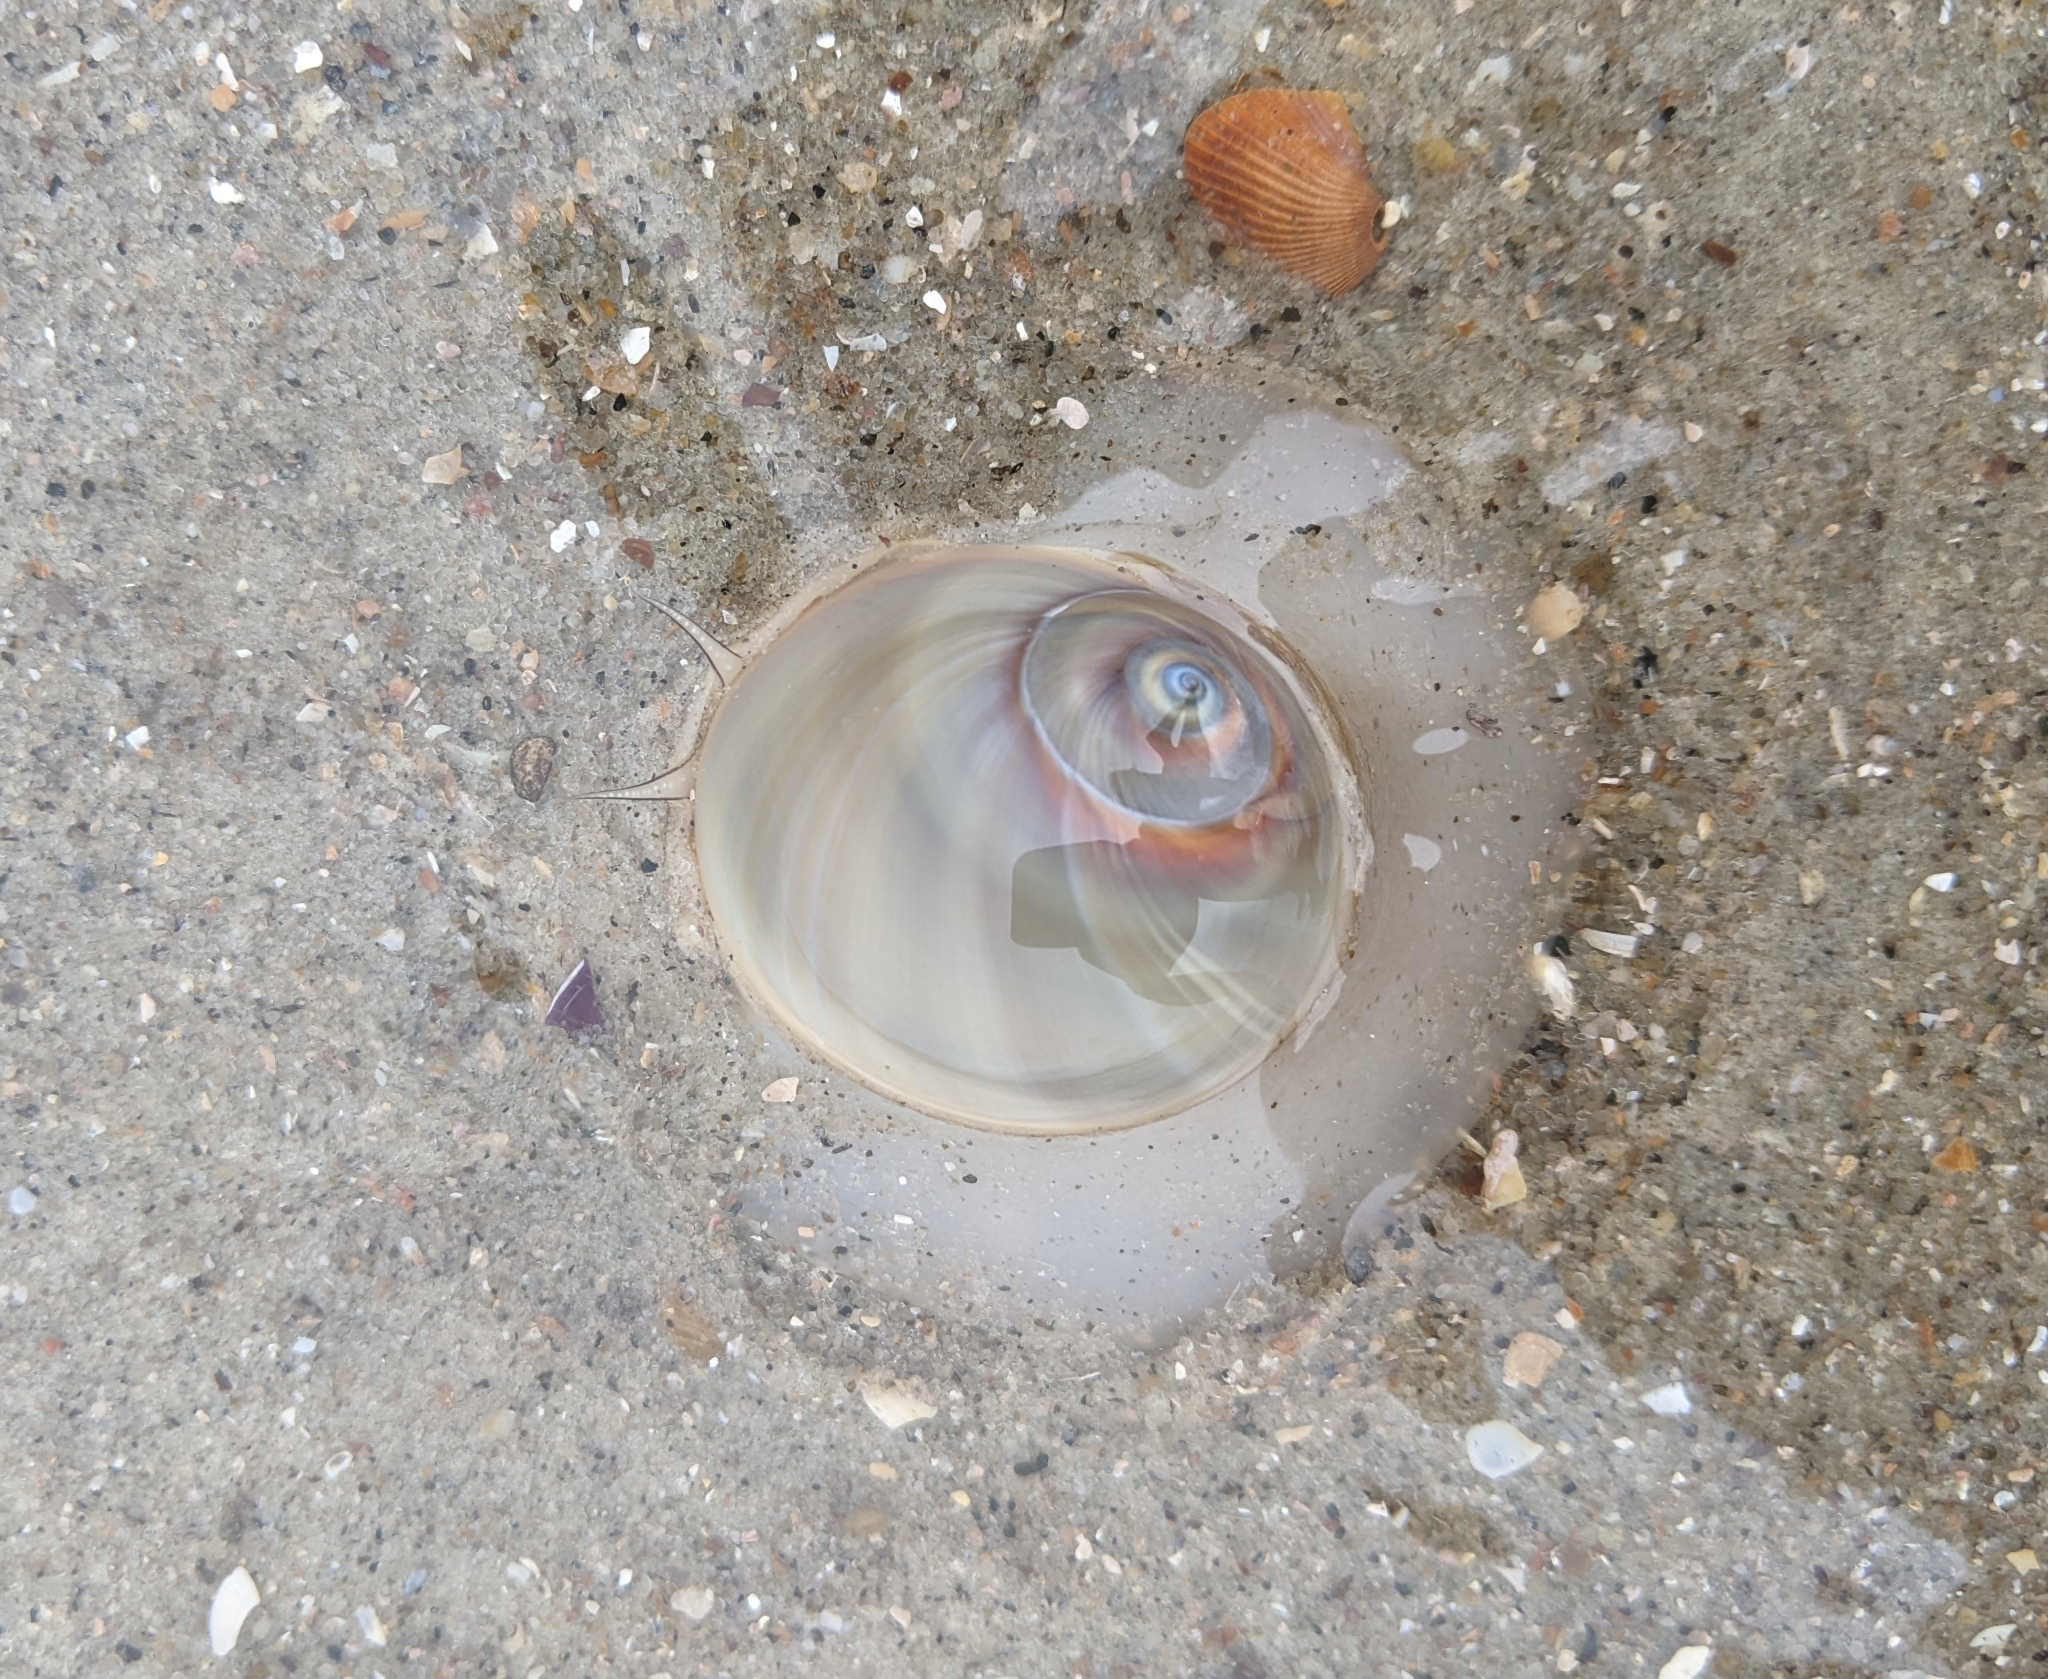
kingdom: Animalia
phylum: Mollusca
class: Gastropoda
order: Littorinimorpha
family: Naticidae
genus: Neverita
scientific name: Neverita duplicata
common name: Lobed moonsnail
